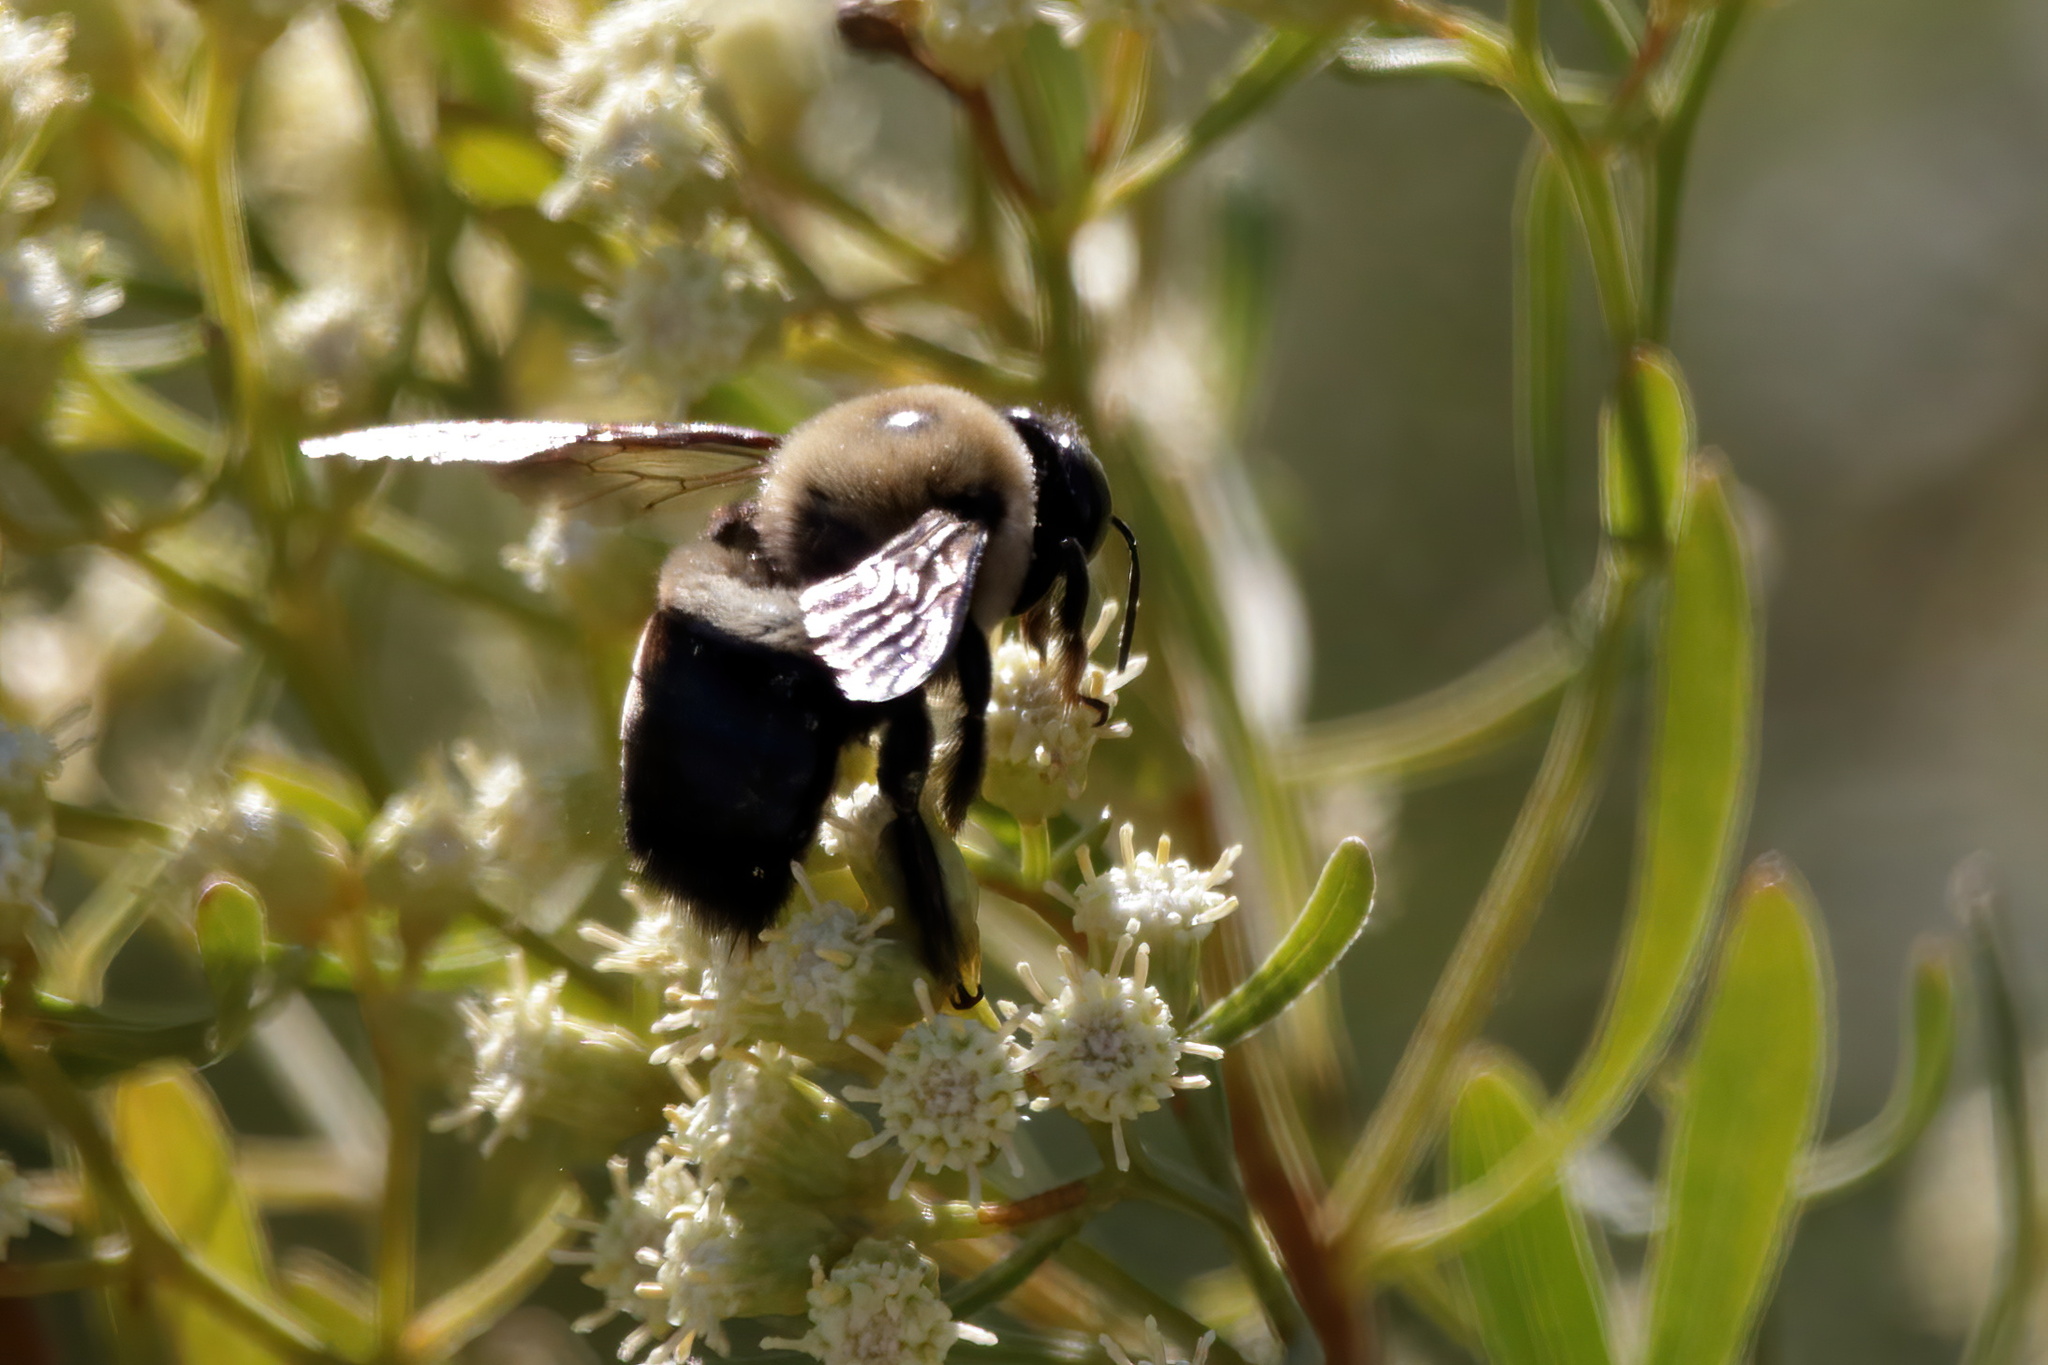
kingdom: Animalia
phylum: Arthropoda
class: Insecta
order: Hymenoptera
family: Apidae
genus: Xylocopa
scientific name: Xylocopa virginica
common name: Carpenter bee
